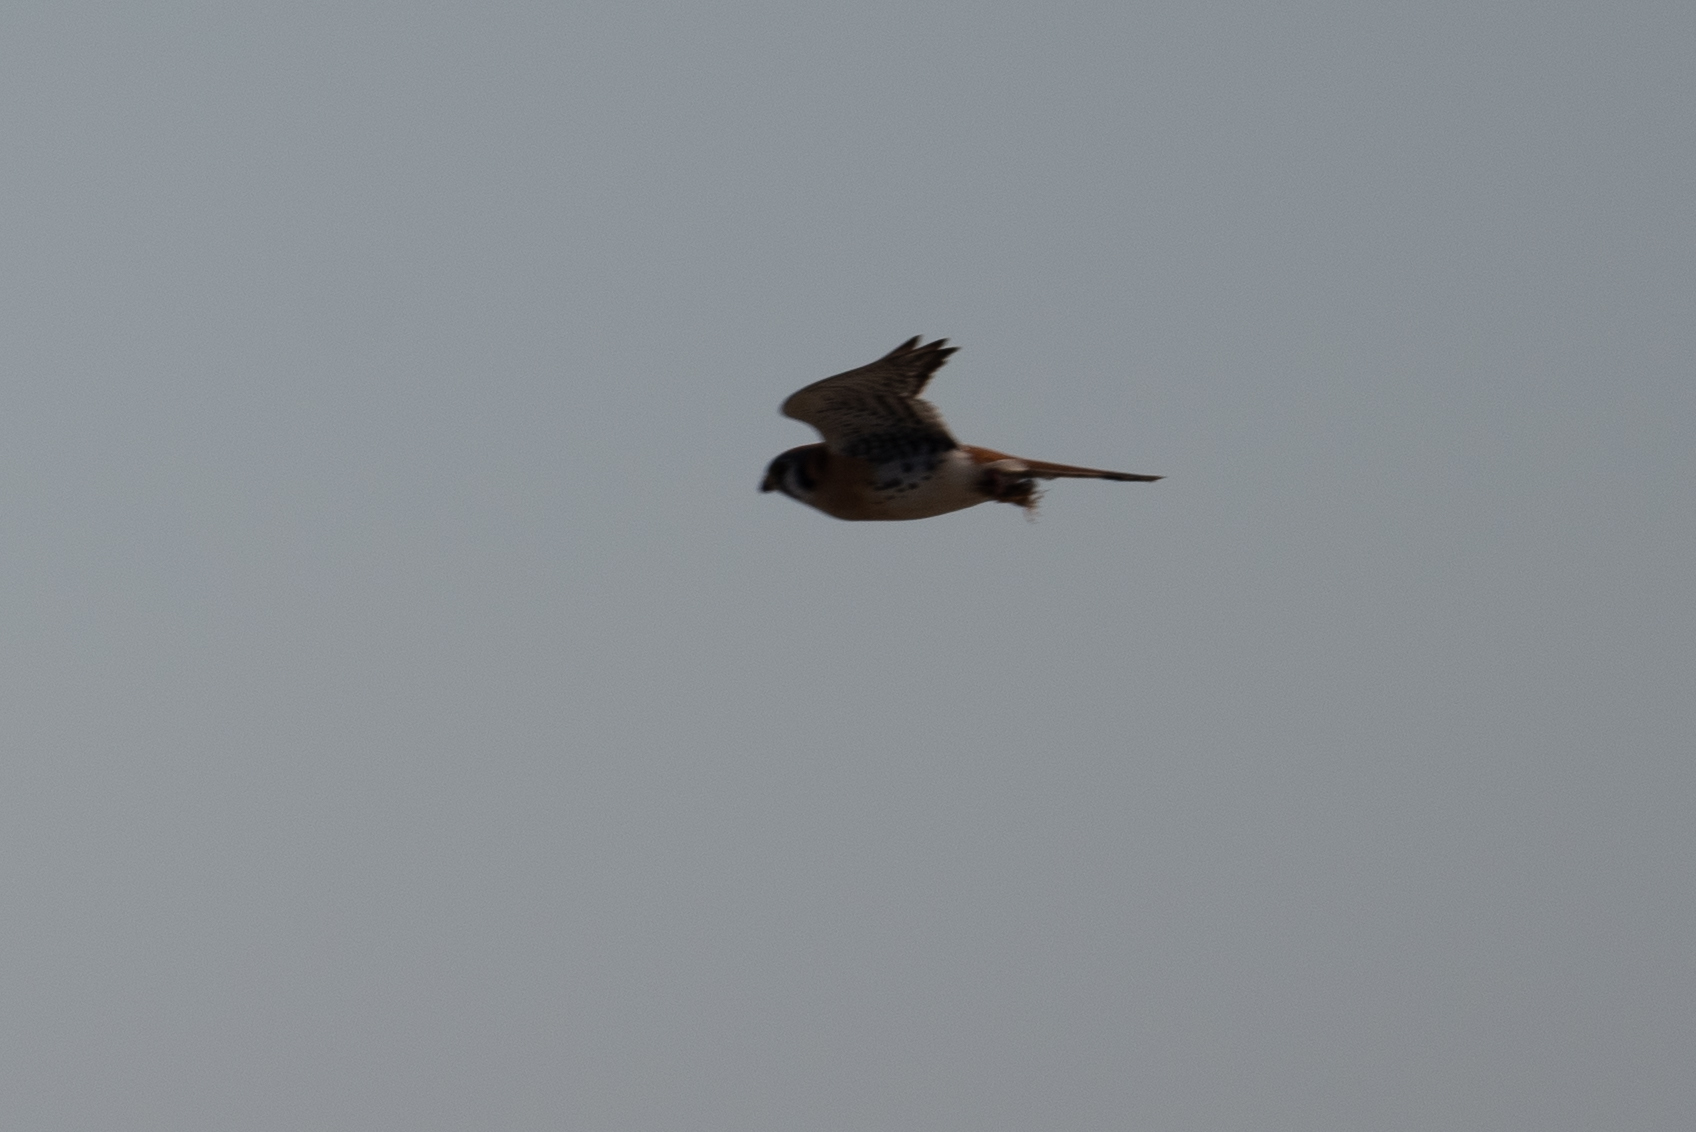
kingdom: Animalia
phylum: Chordata
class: Aves
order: Falconiformes
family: Falconidae
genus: Falco
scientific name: Falco sparverius
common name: American kestrel
